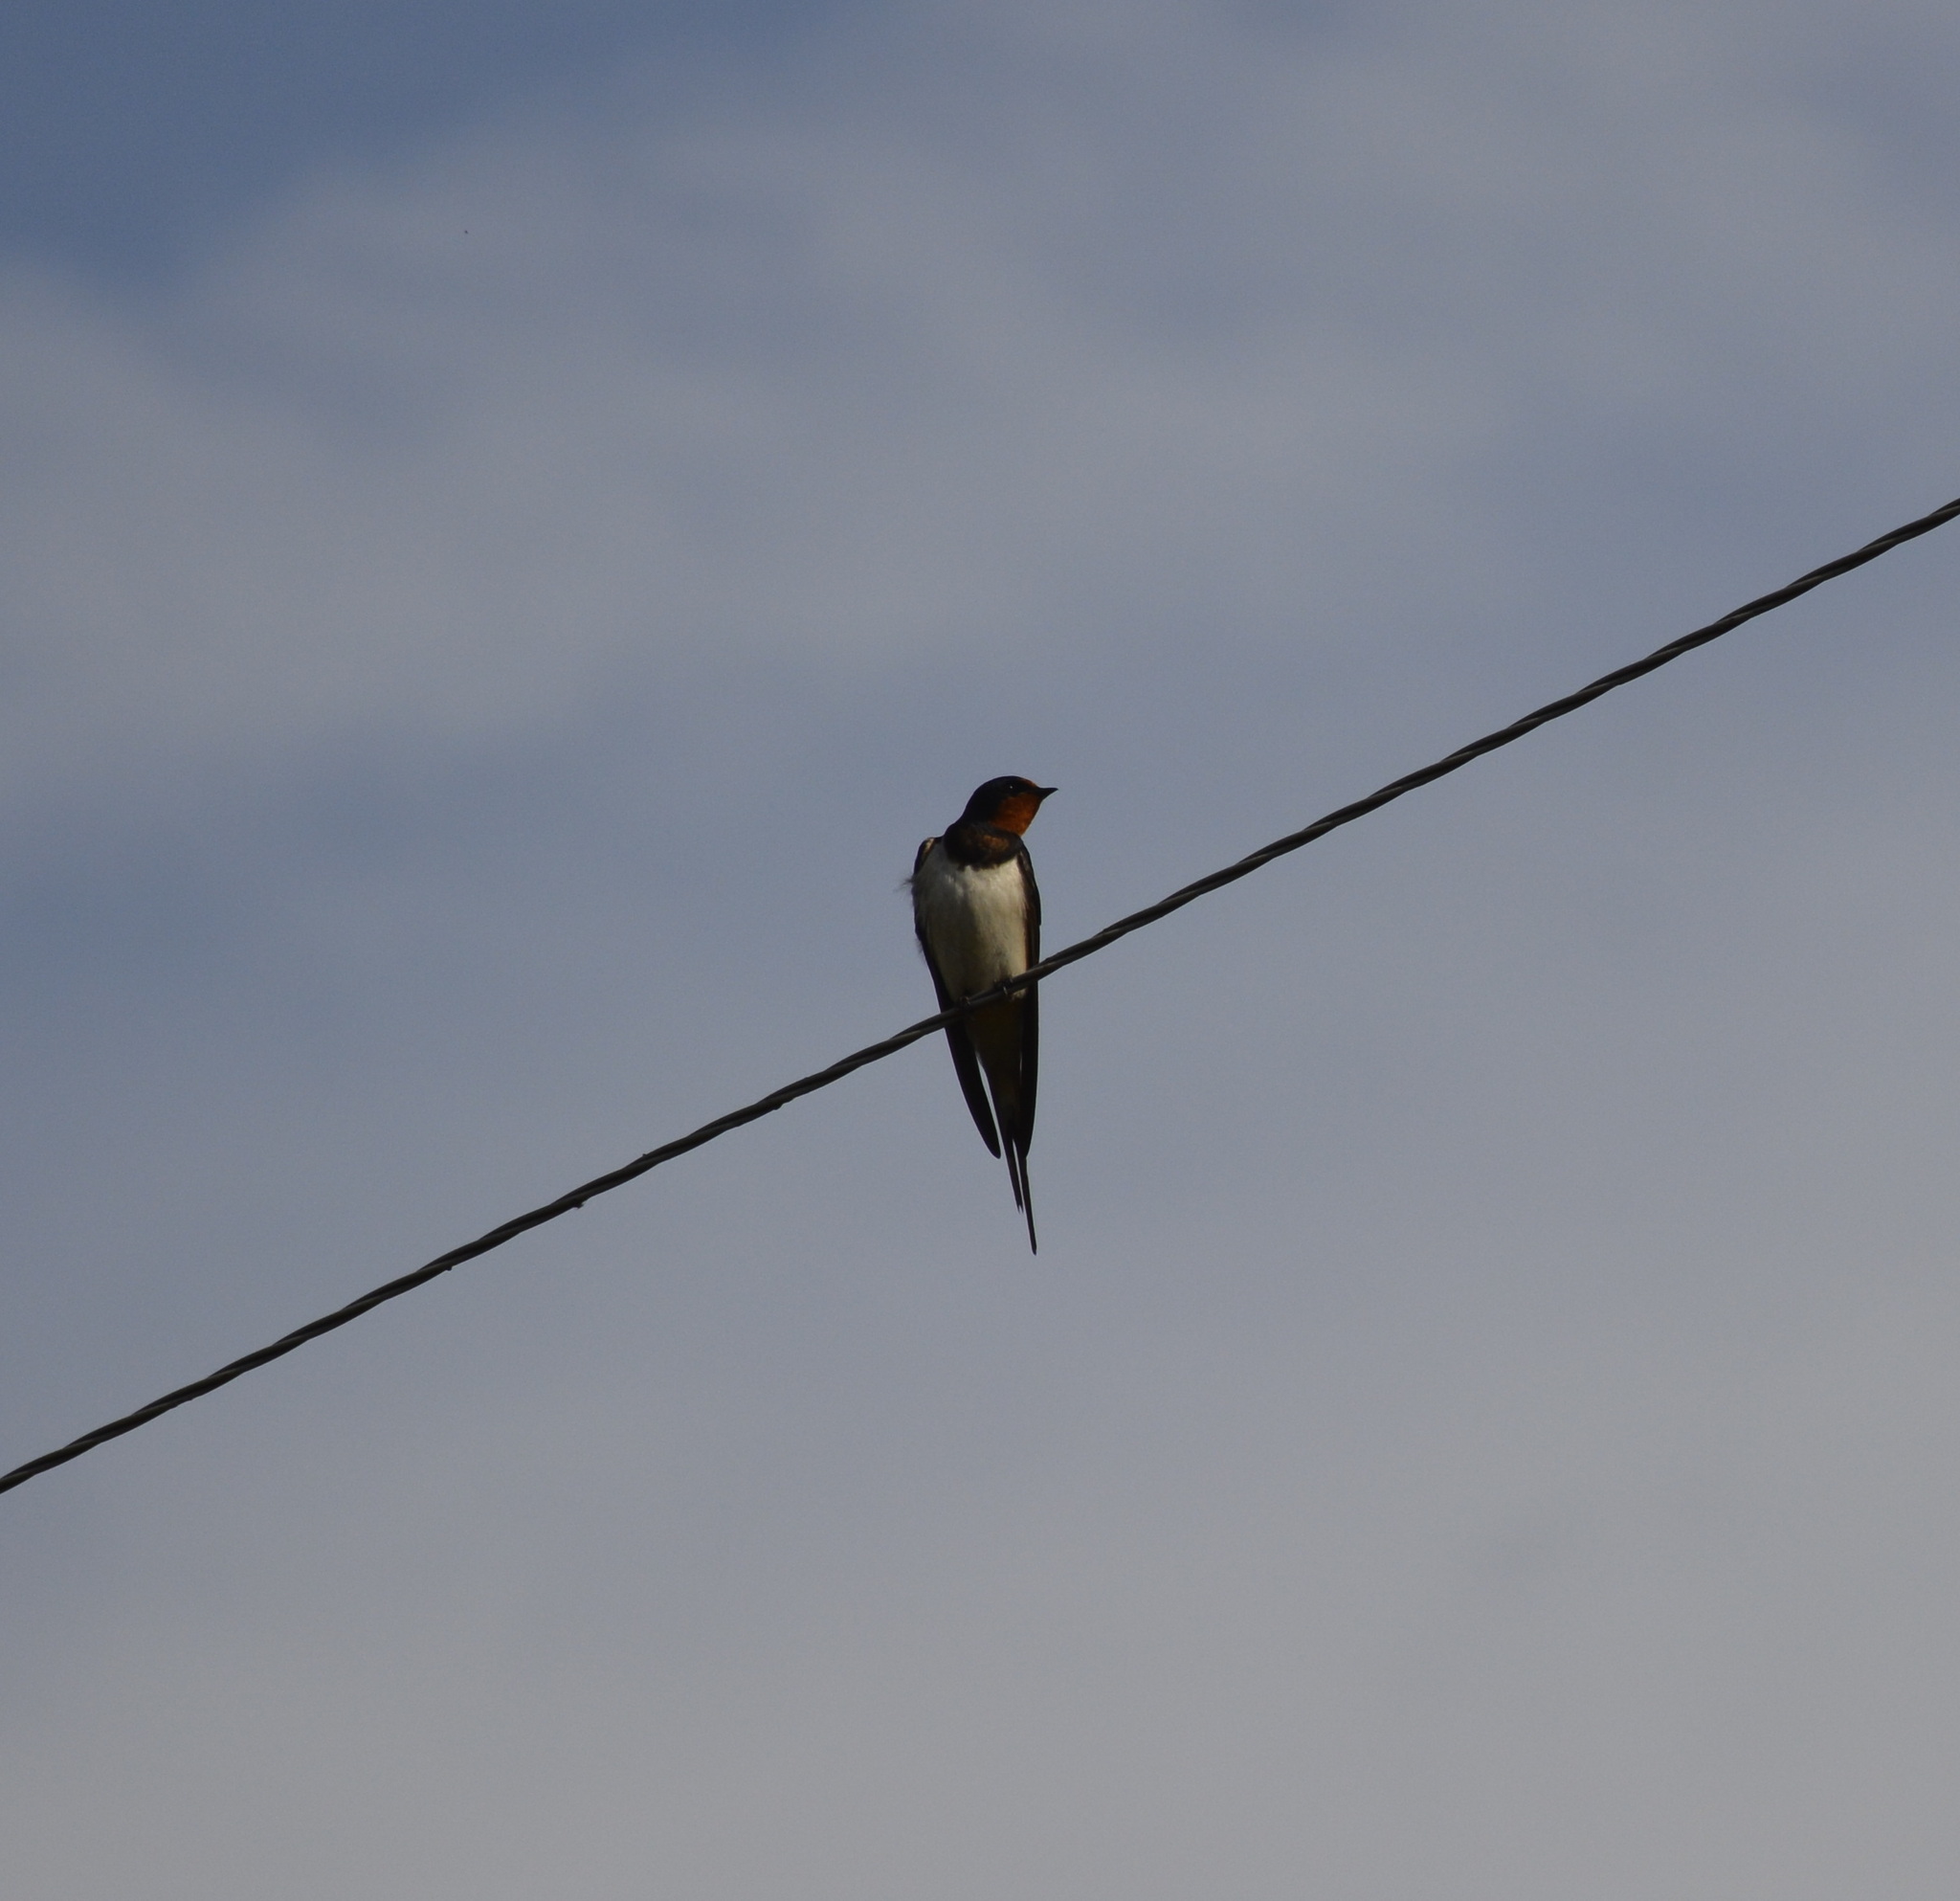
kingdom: Animalia
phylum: Chordata
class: Aves
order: Passeriformes
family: Hirundinidae
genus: Hirundo
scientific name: Hirundo rustica
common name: Barn swallow
